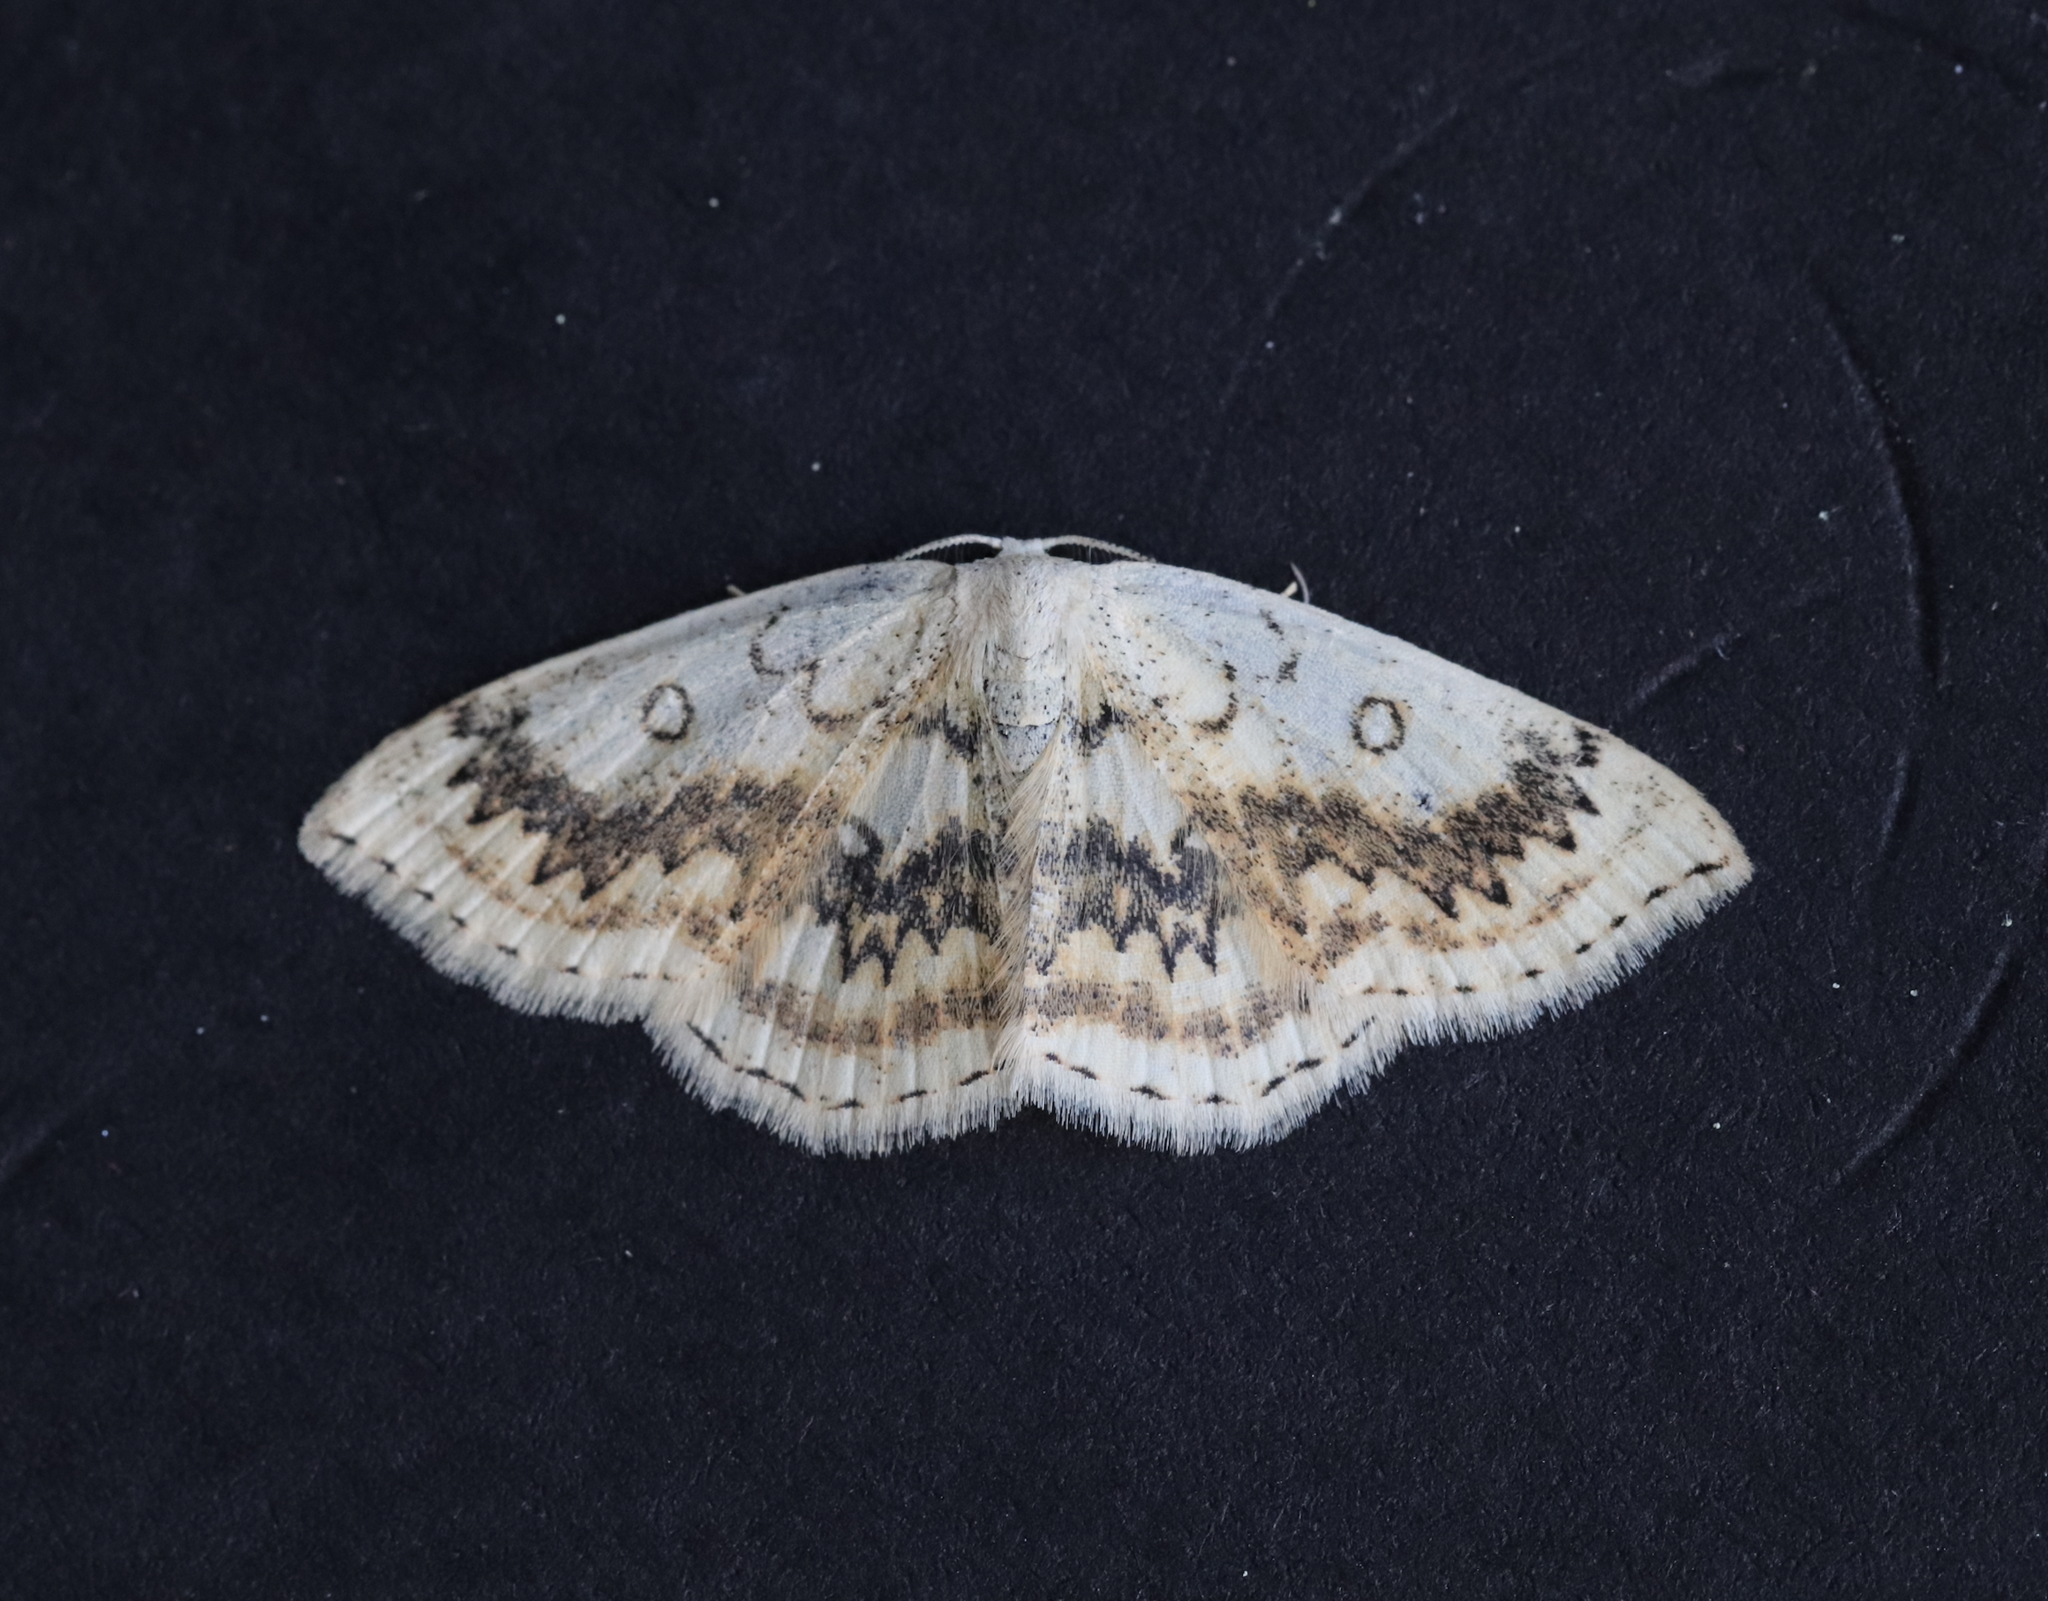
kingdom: Animalia
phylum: Arthropoda
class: Insecta
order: Lepidoptera
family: Geometridae
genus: Cyclophora
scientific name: Cyclophora annularia
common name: Mocha
